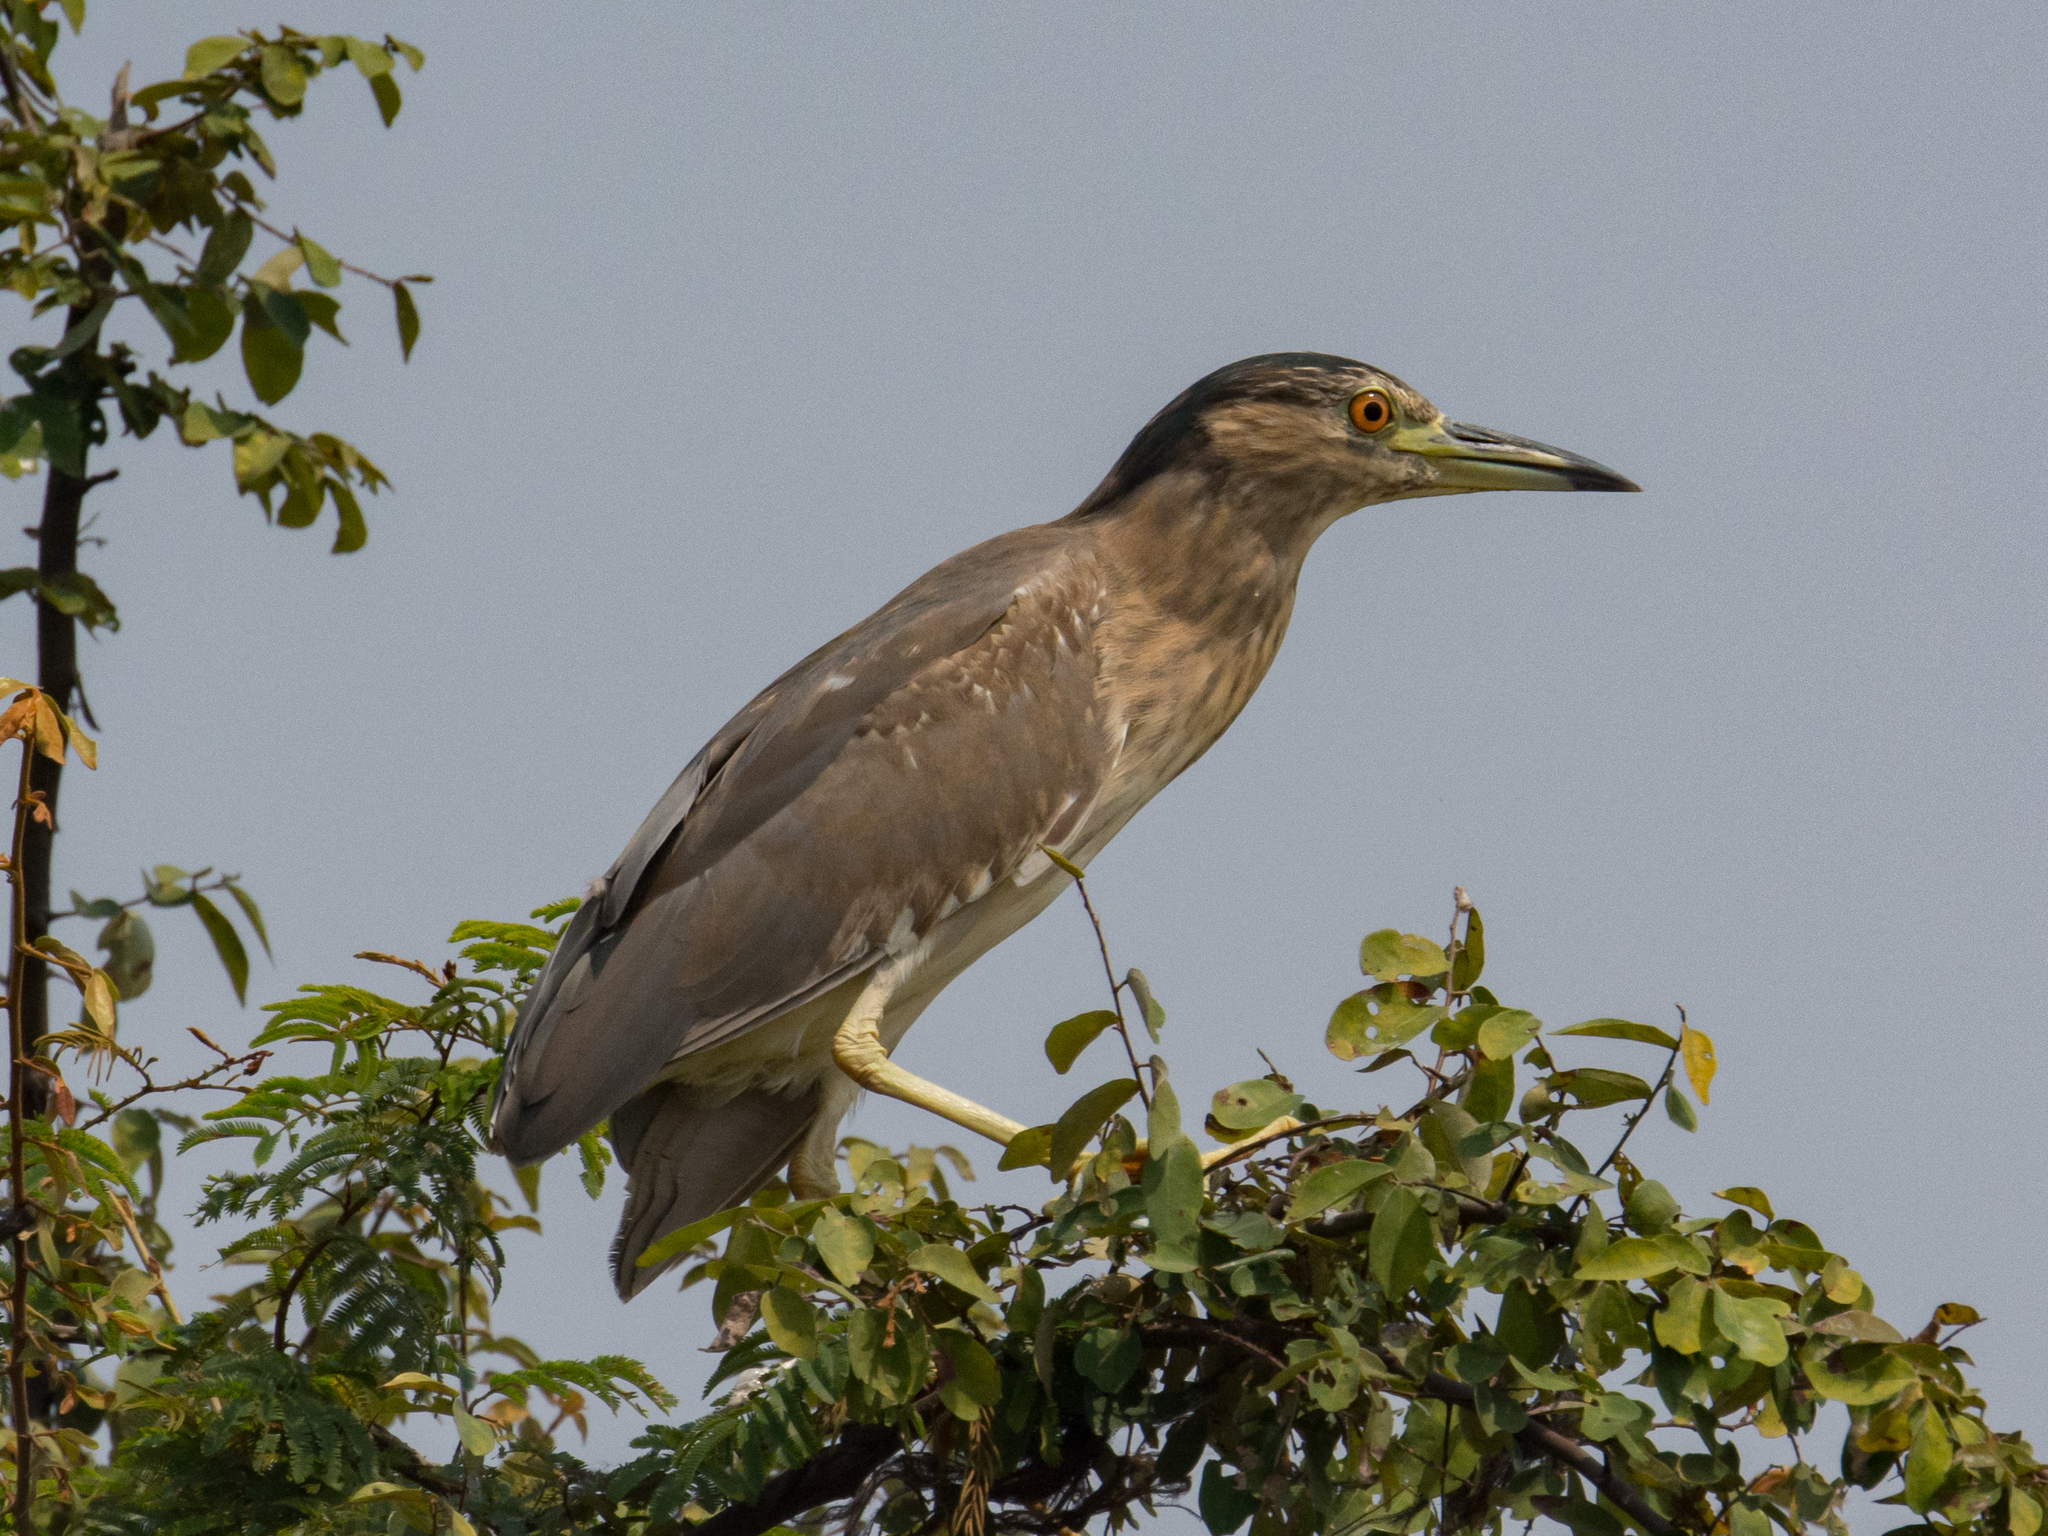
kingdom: Animalia
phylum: Chordata
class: Aves
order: Pelecaniformes
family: Ardeidae
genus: Nycticorax
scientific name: Nycticorax nycticorax
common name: Black-crowned night heron
